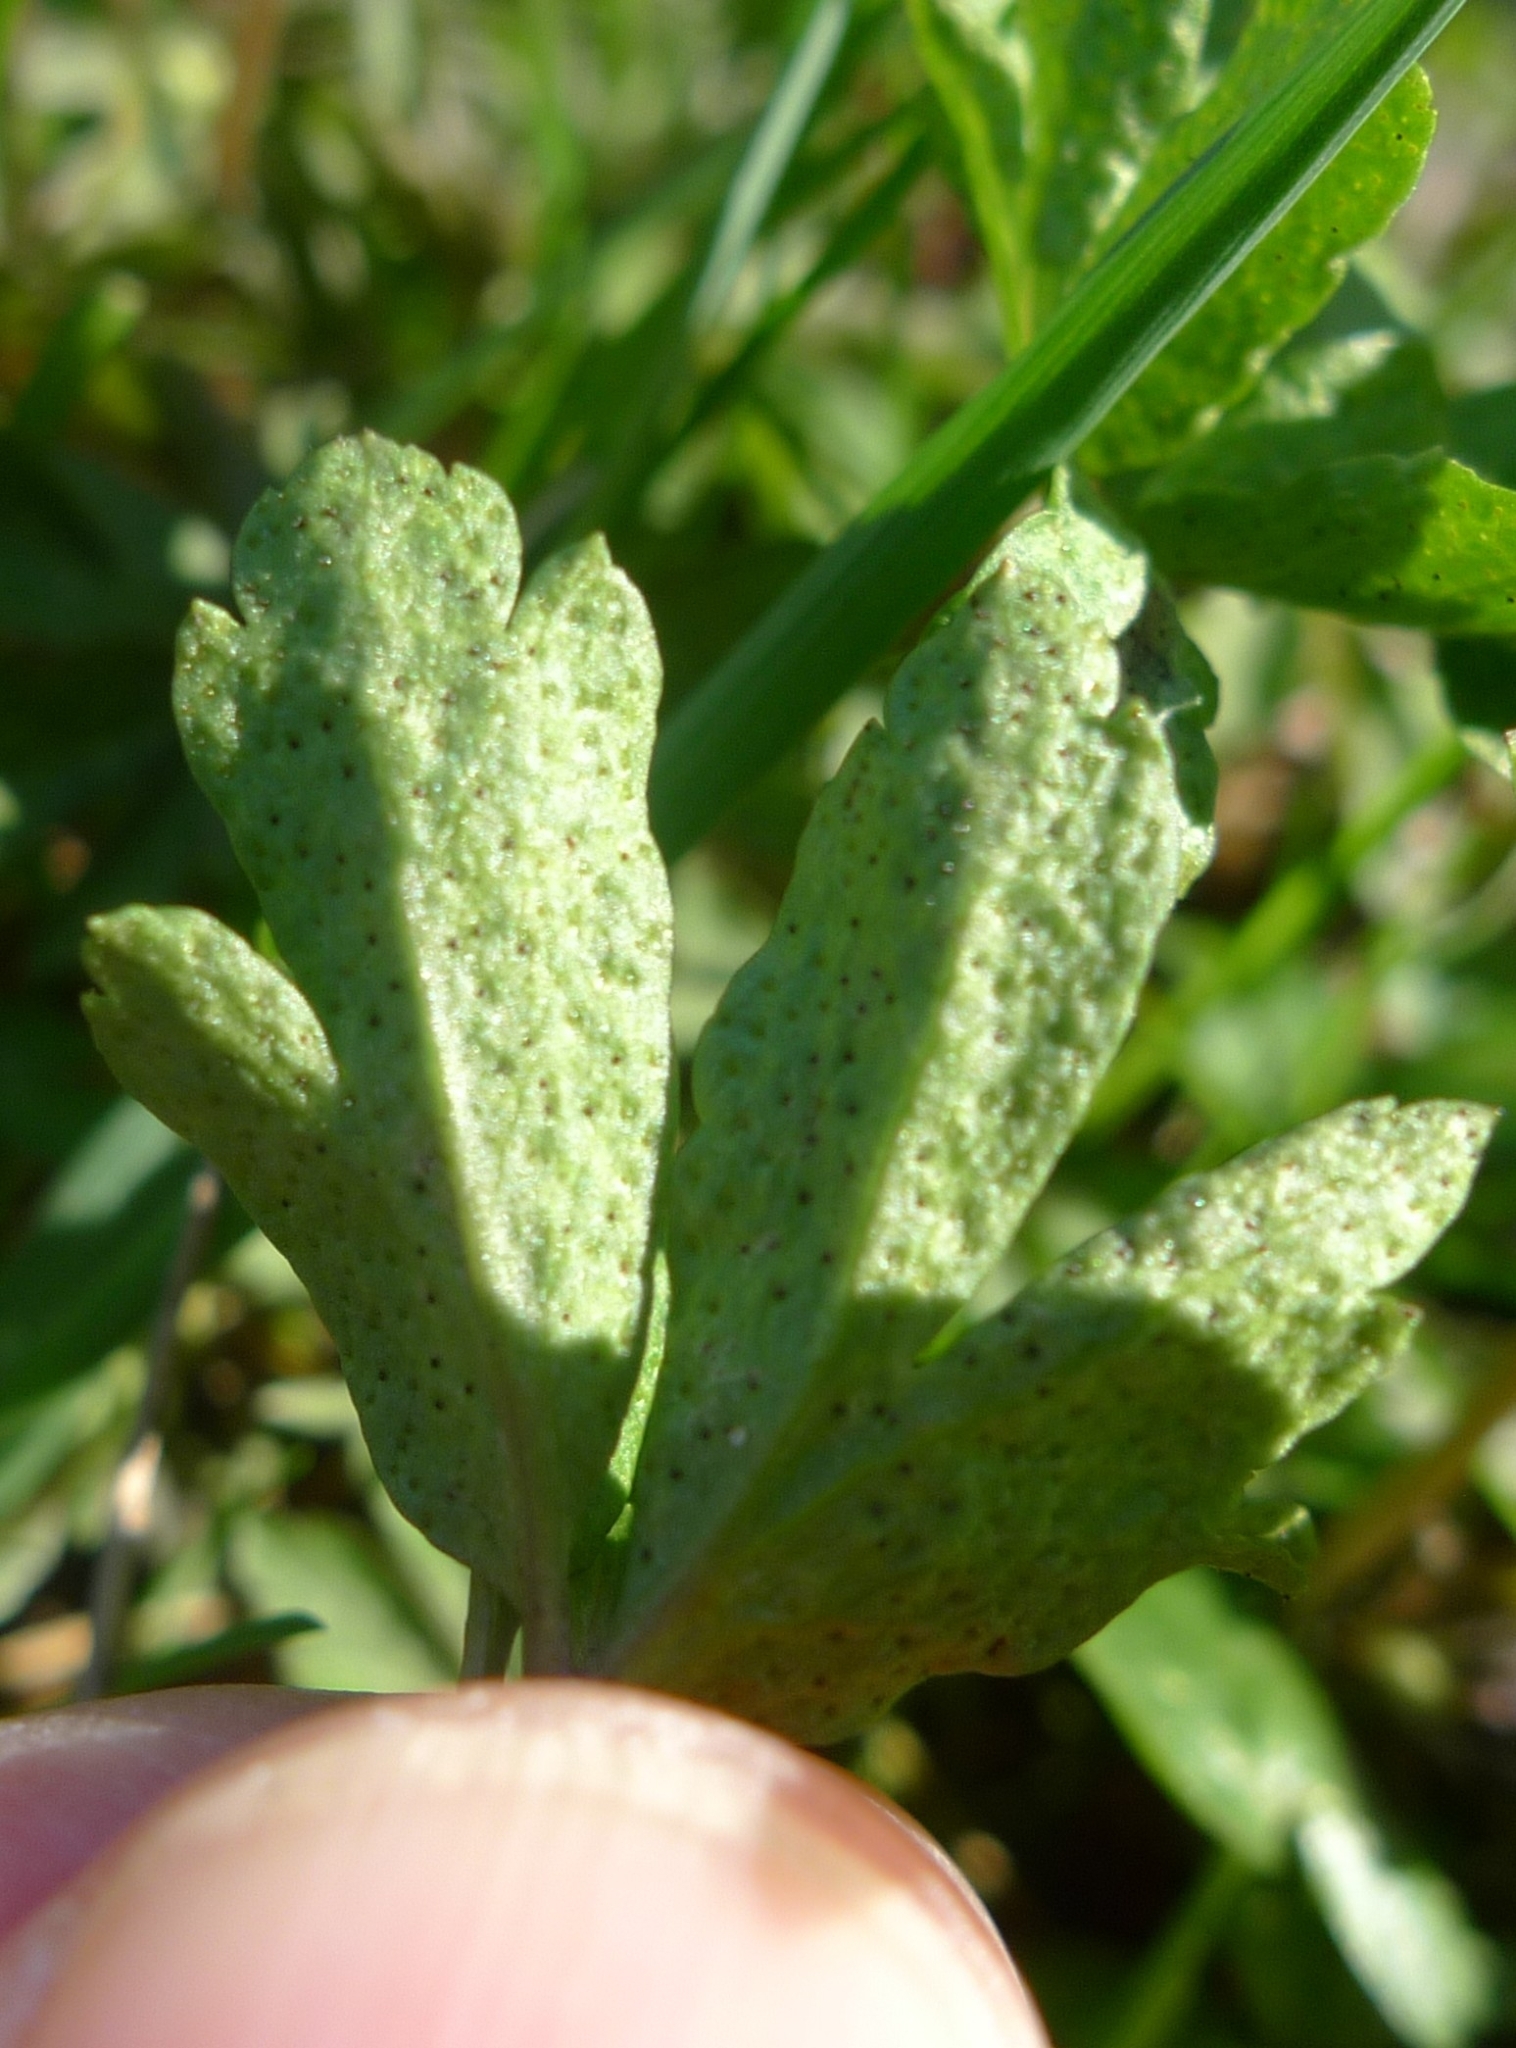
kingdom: Fungi
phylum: Basidiomycota
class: Pucciniomycetes
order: Pucciniales
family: Tranzscheliaceae
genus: Tranzschelia
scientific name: Tranzschelia pruni-spinosae
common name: Blackthorn rust
